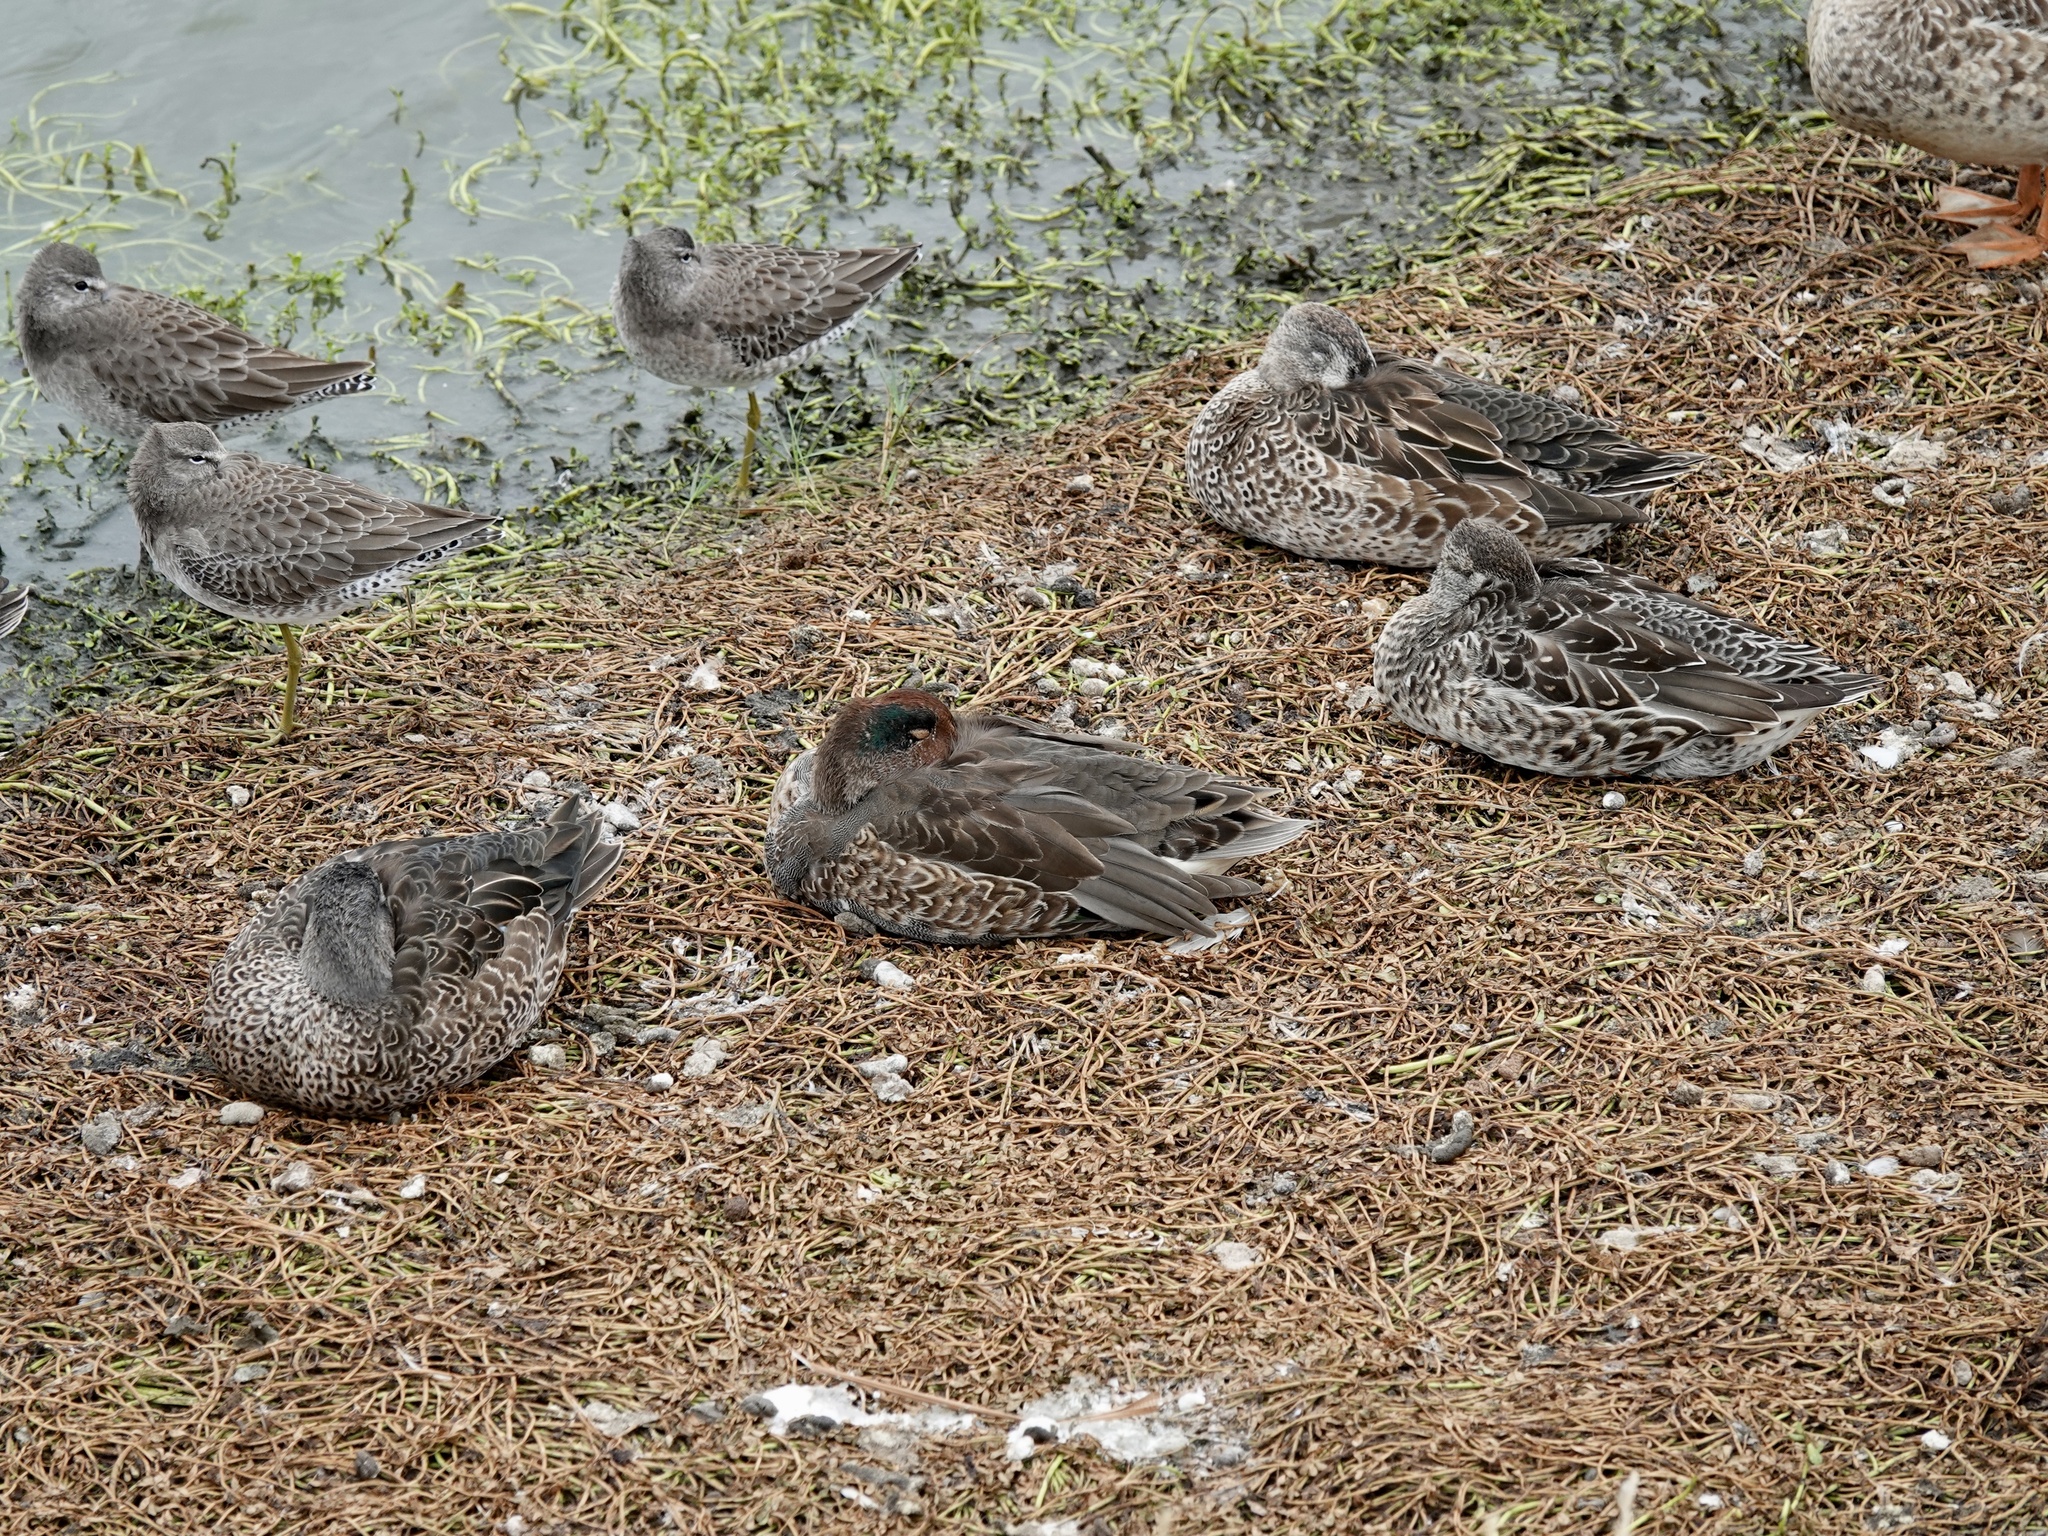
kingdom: Animalia
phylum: Chordata
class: Aves
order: Anseriformes
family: Anatidae
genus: Anas
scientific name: Anas crecca
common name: Eurasian teal
